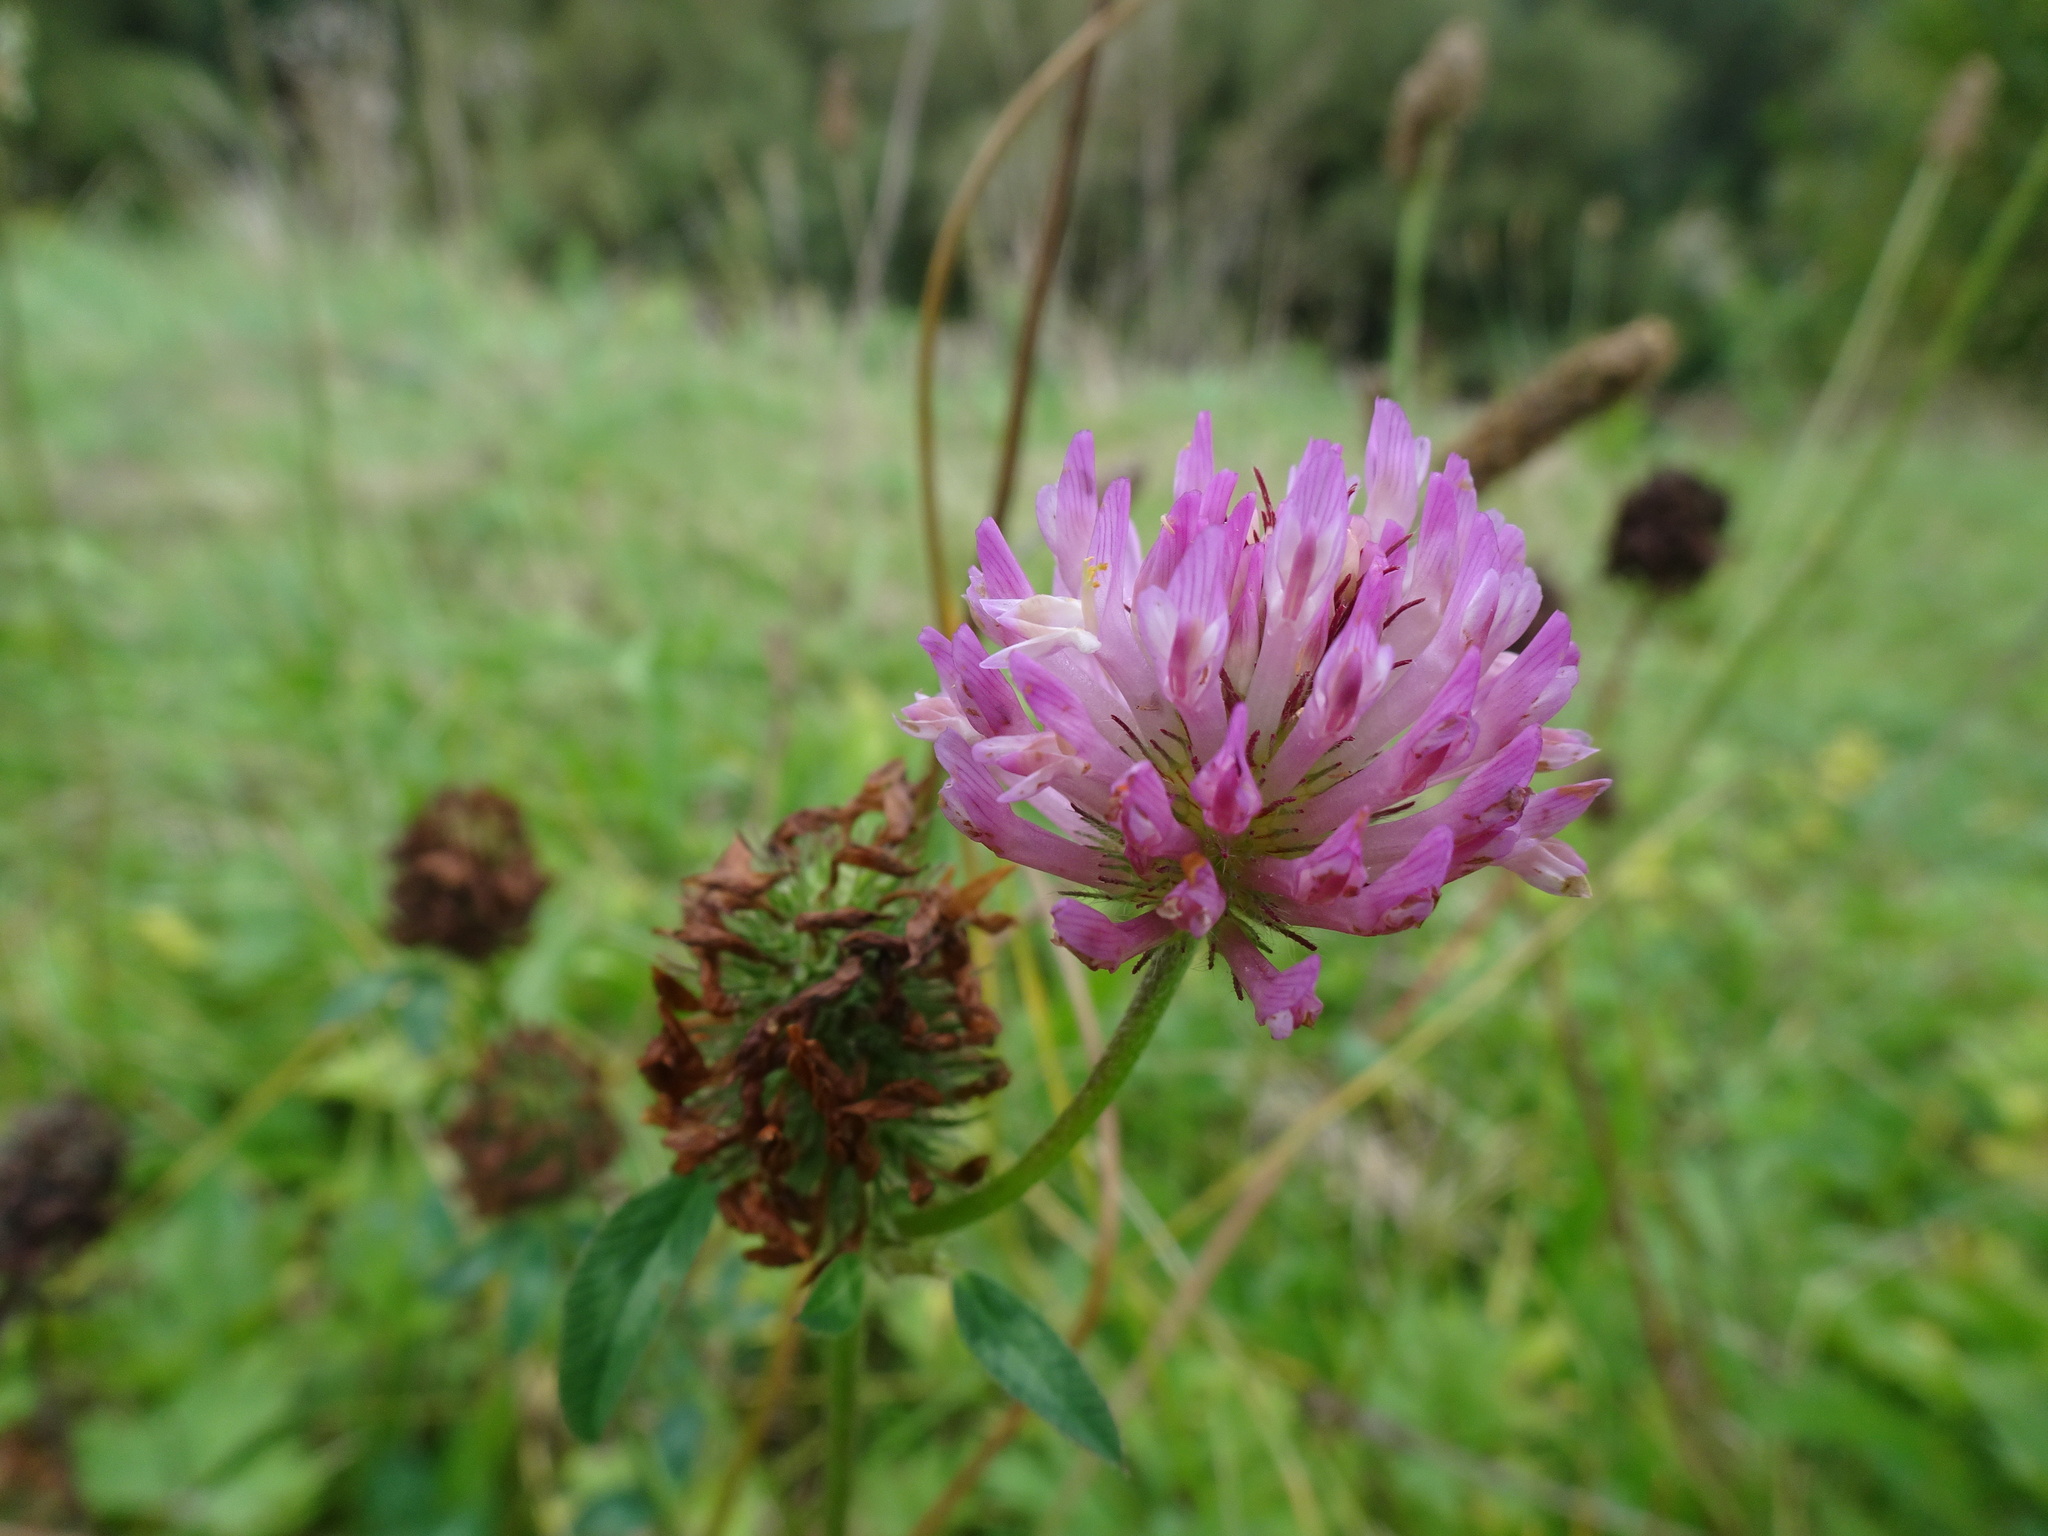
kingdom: Plantae
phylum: Tracheophyta
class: Magnoliopsida
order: Fabales
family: Fabaceae
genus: Trifolium
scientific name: Trifolium pratense
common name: Red clover
